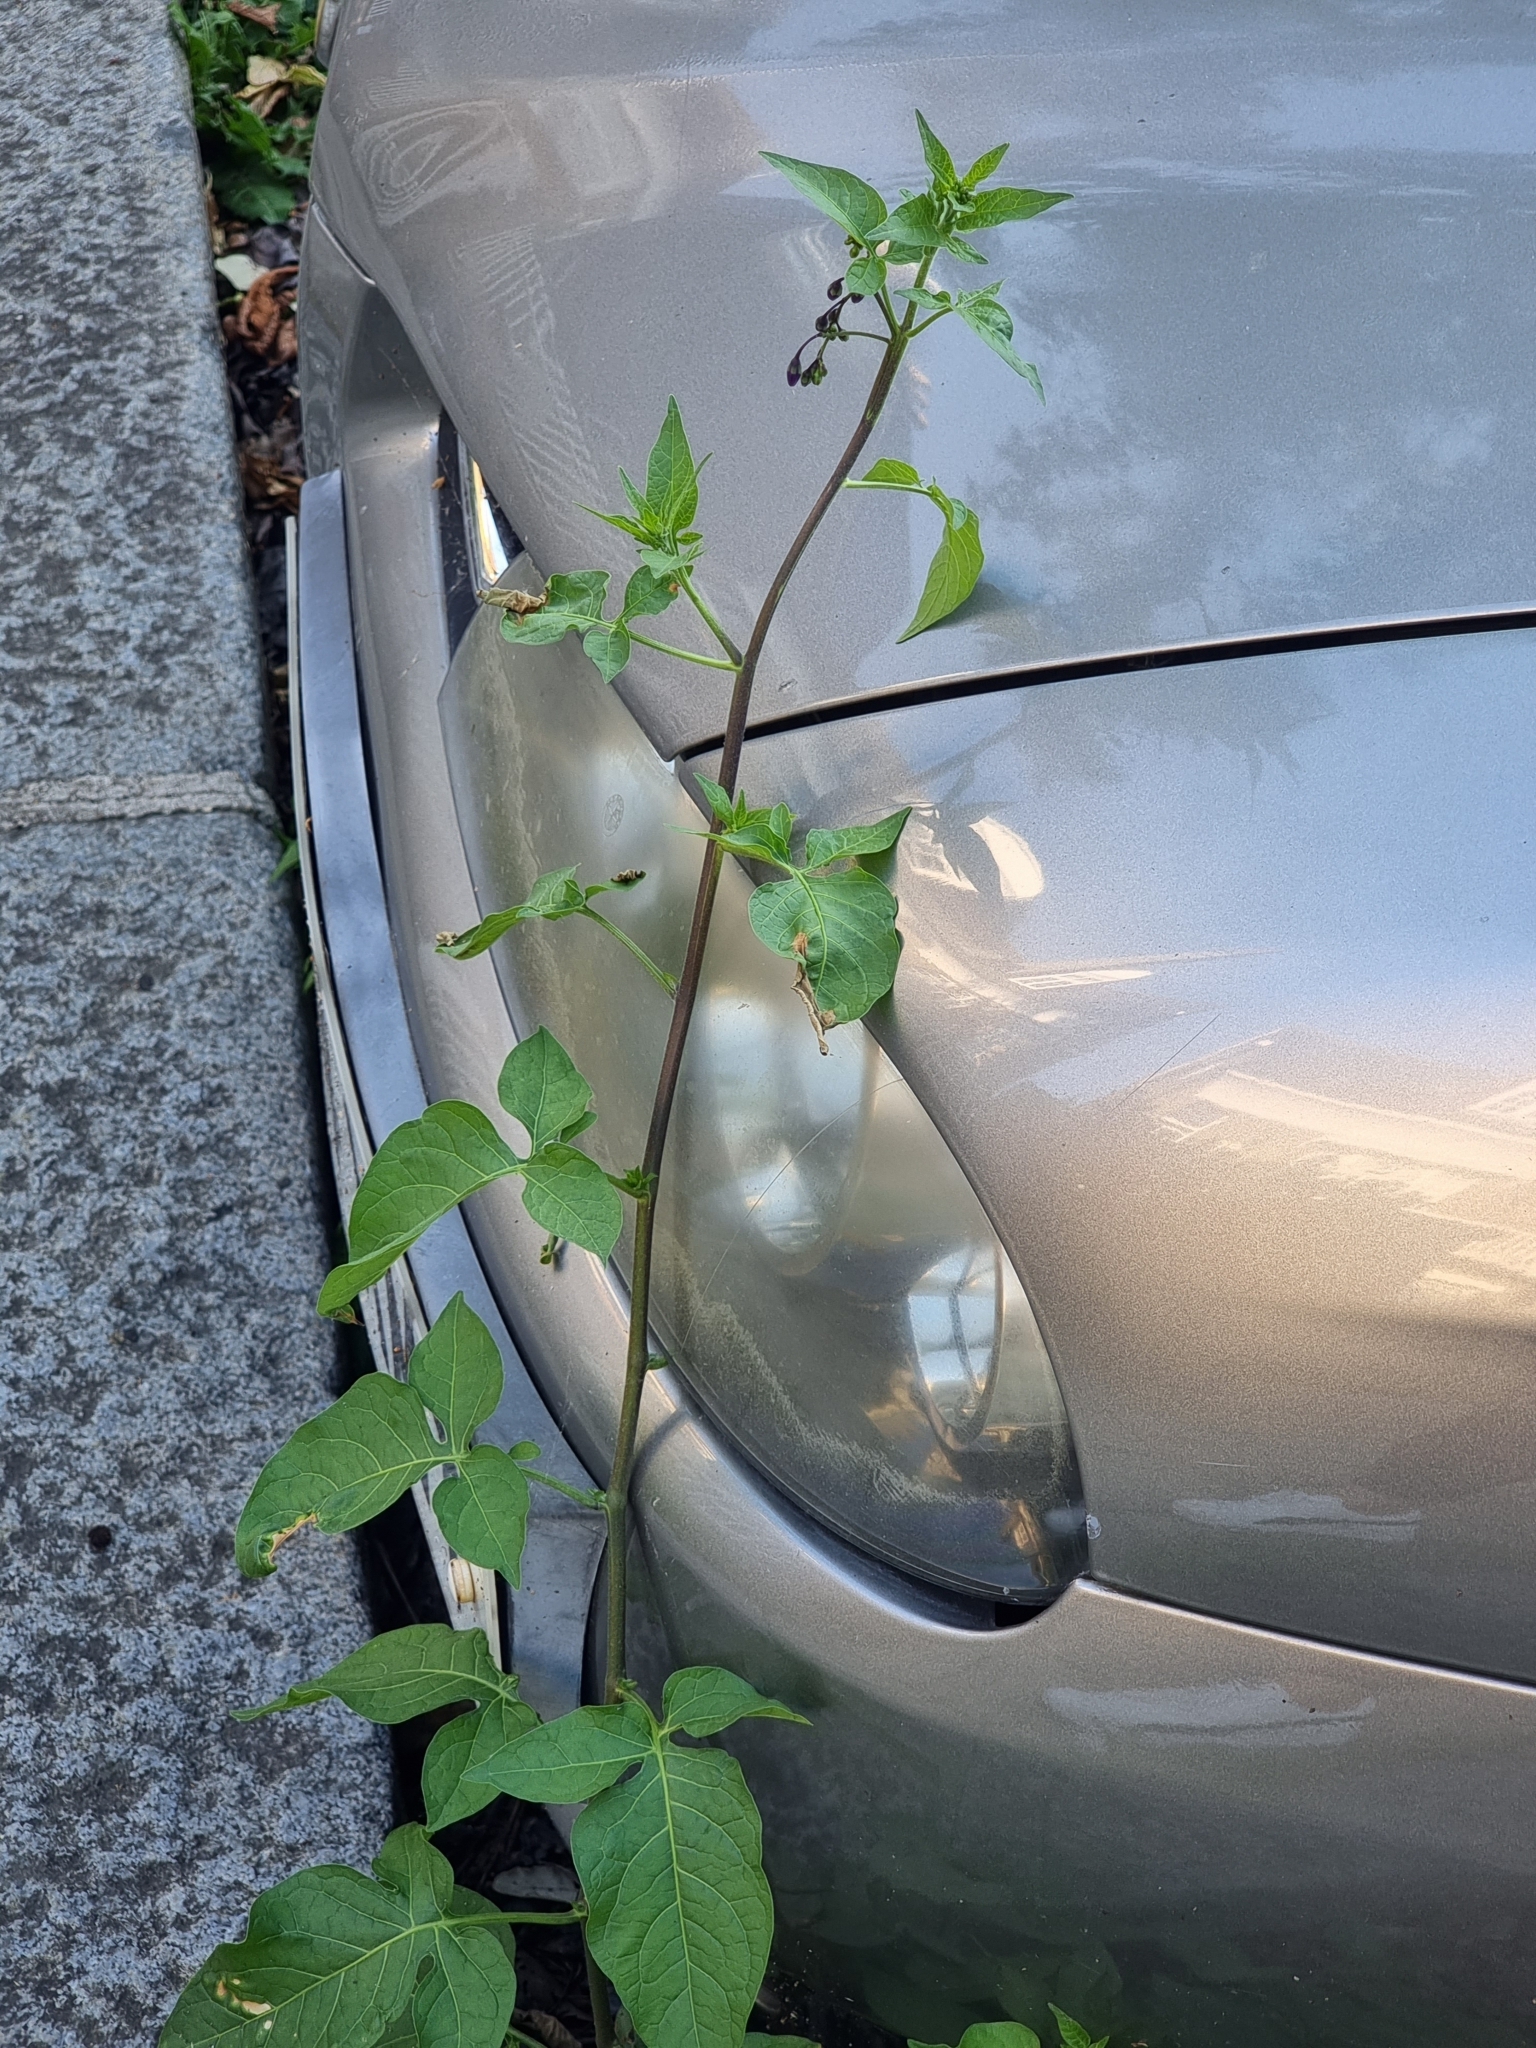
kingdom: Plantae
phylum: Tracheophyta
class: Magnoliopsida
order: Solanales
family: Solanaceae
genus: Solanum
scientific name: Solanum dulcamara
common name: Climbing nightshade
